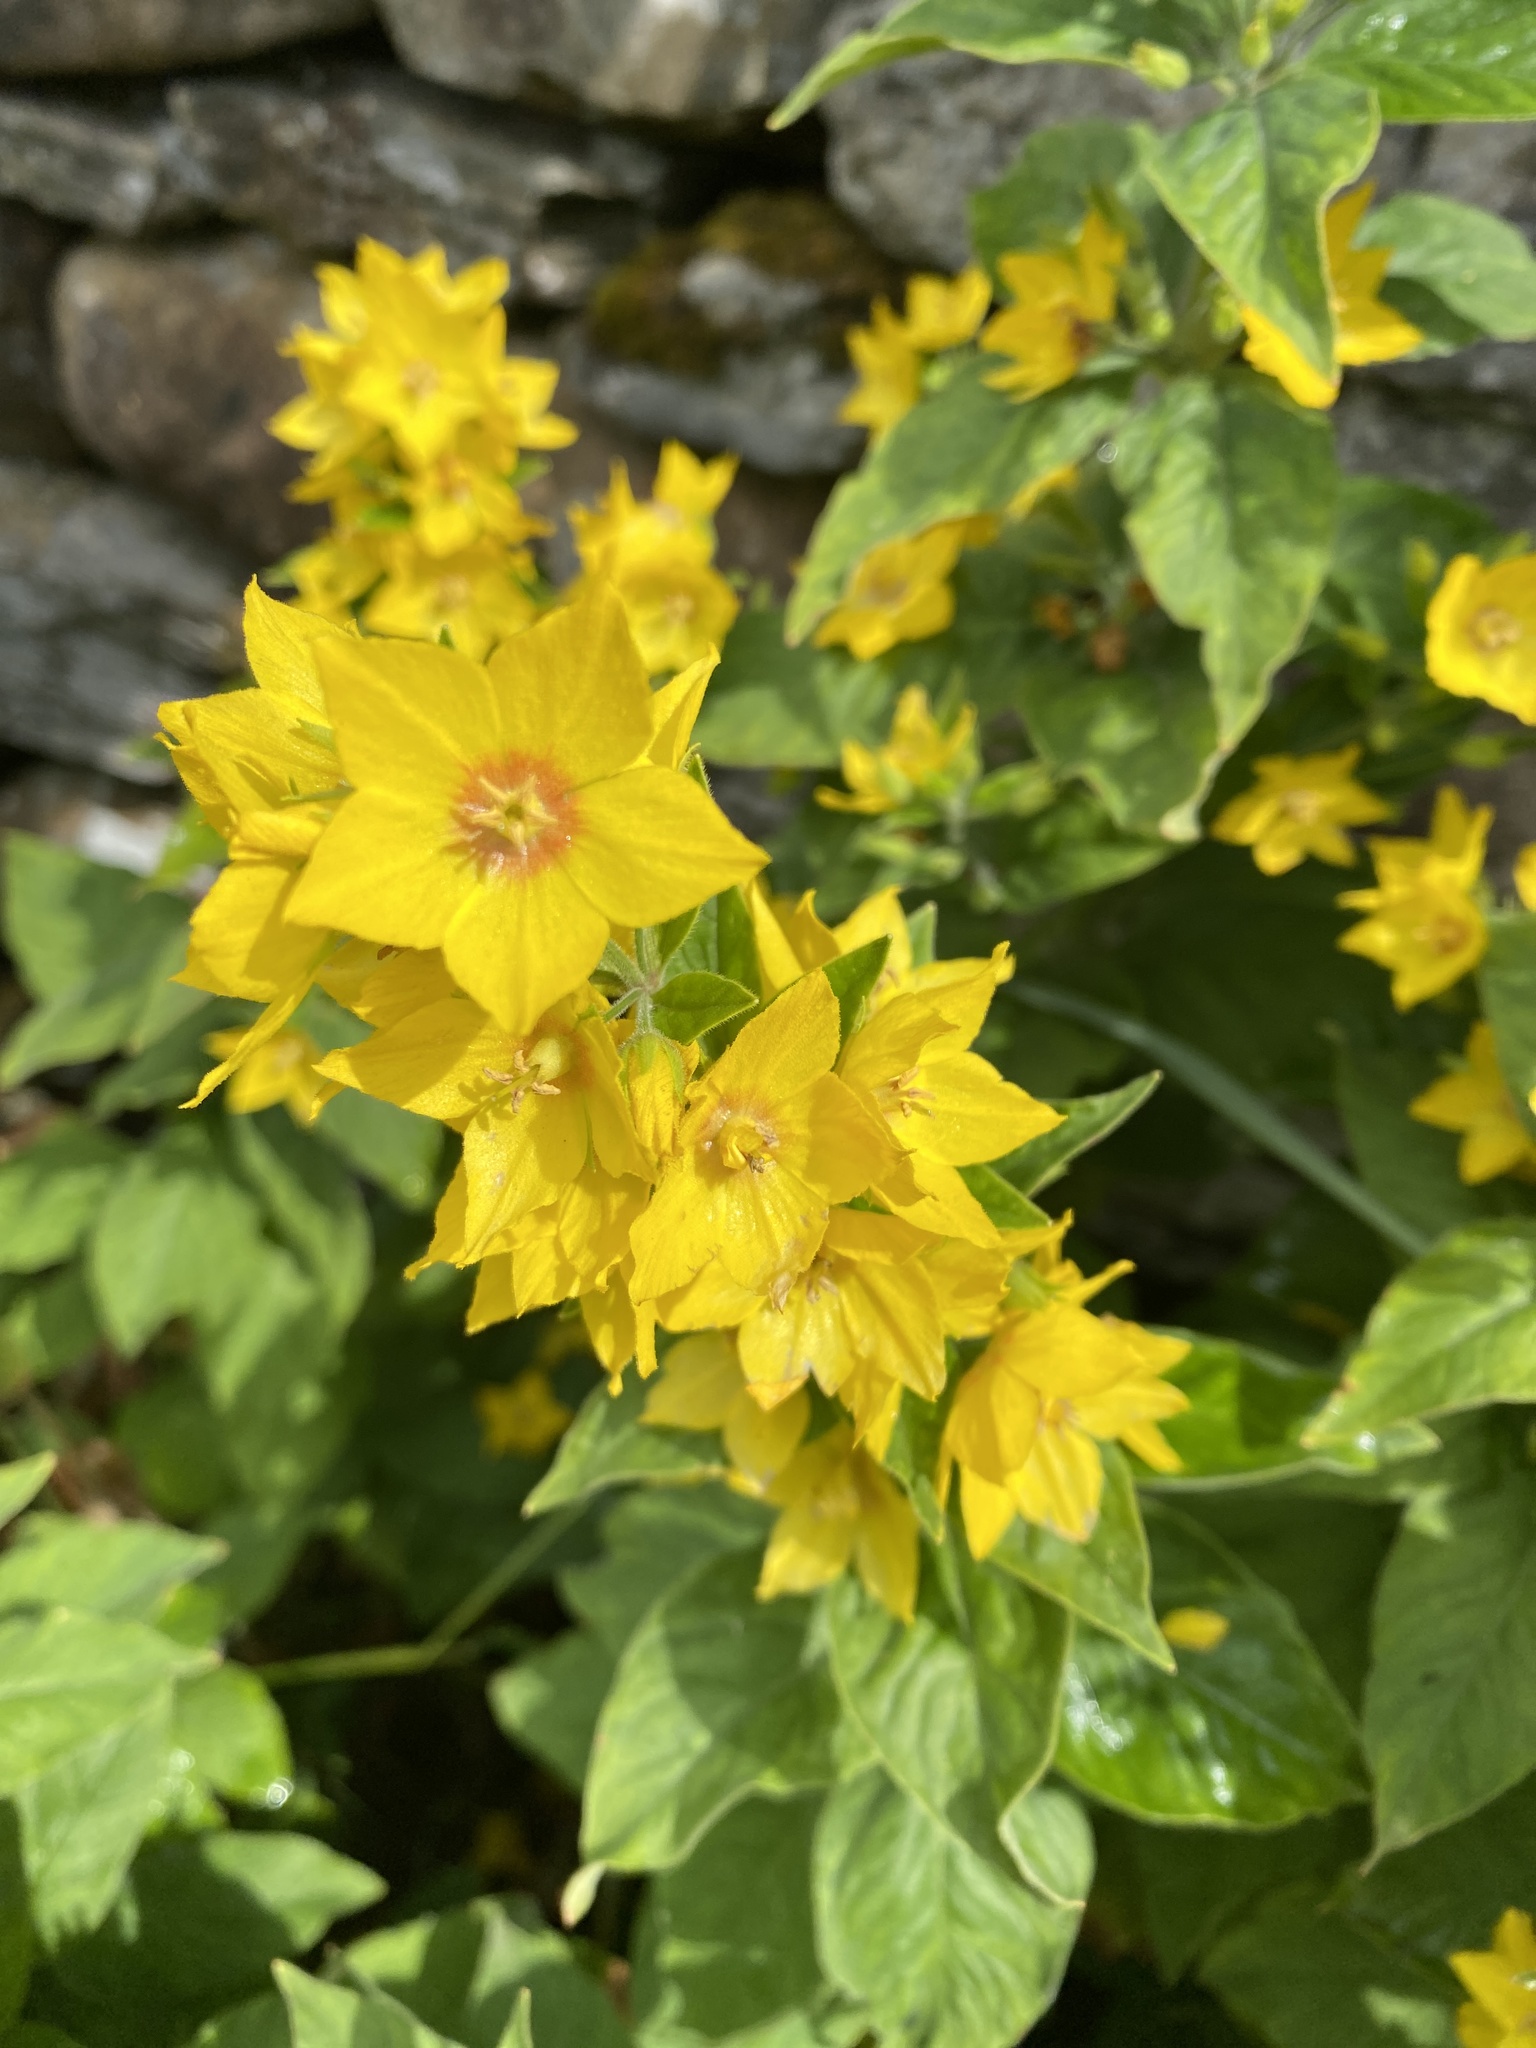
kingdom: Plantae
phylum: Tracheophyta
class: Magnoliopsida
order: Ericales
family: Primulaceae
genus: Lysimachia
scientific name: Lysimachia punctata
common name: Dotted loosestrife
